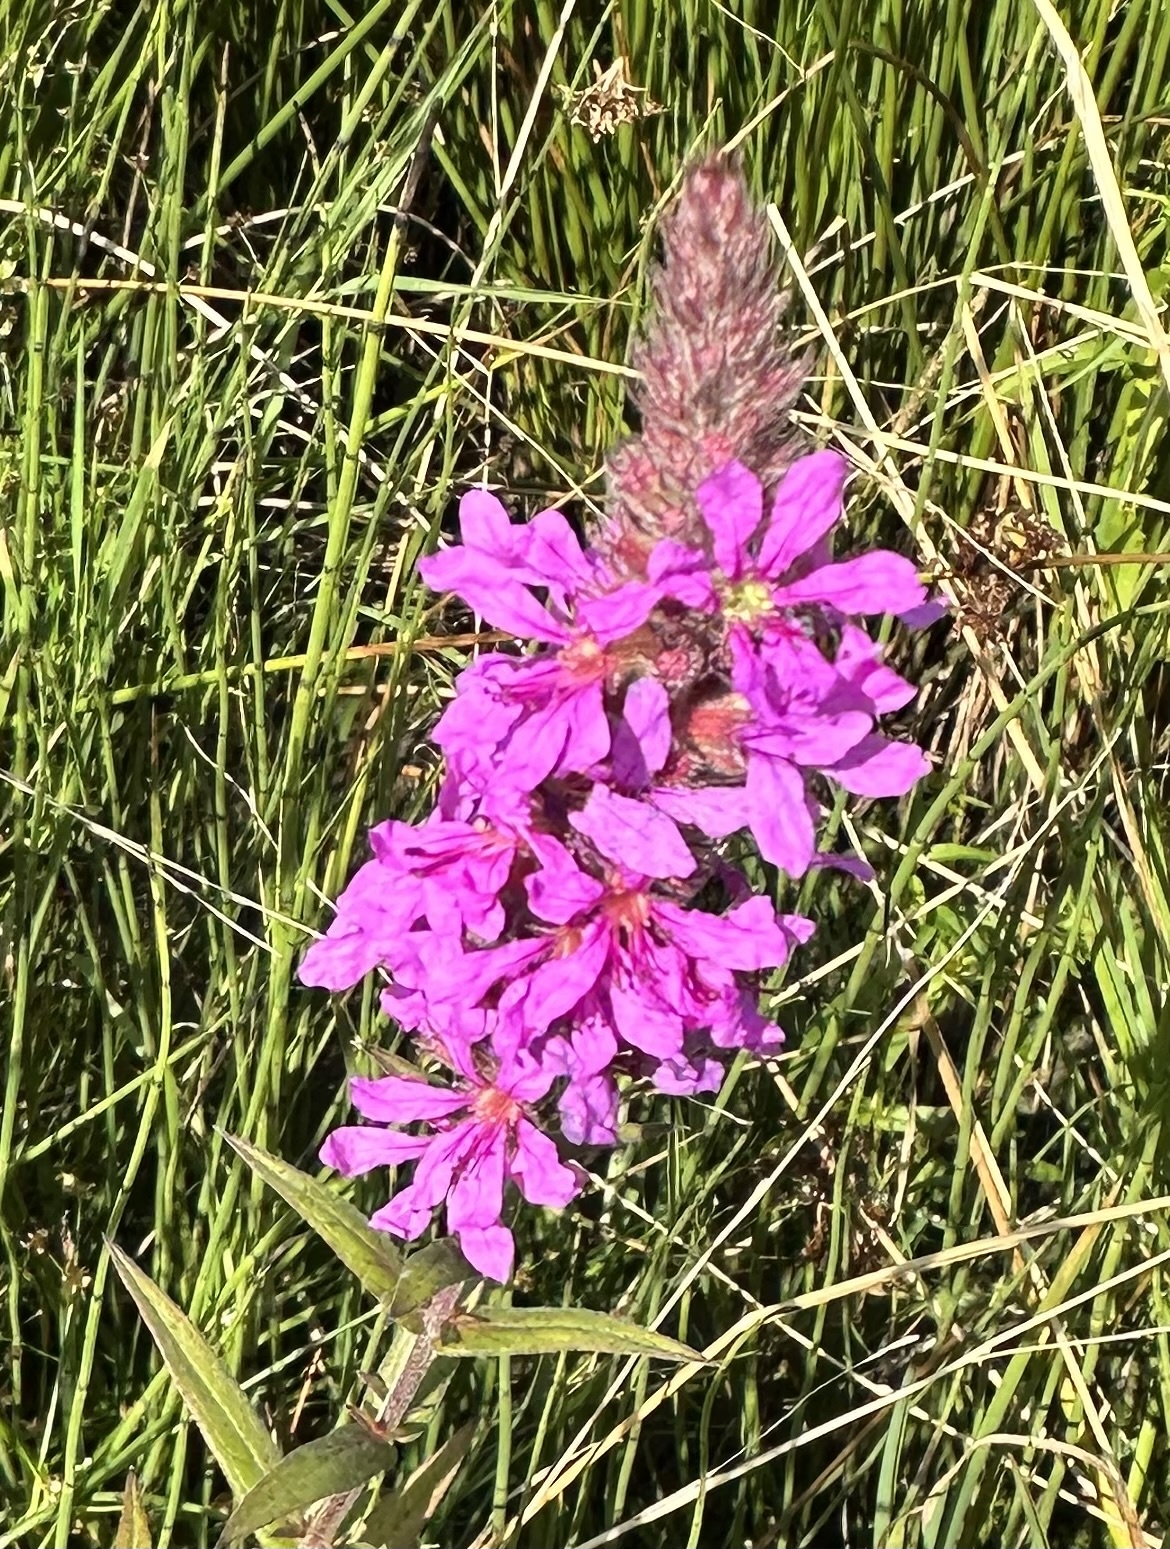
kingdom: Plantae
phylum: Tracheophyta
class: Magnoliopsida
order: Myrtales
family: Lythraceae
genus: Lythrum
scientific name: Lythrum salicaria
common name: Purple loosestrife
